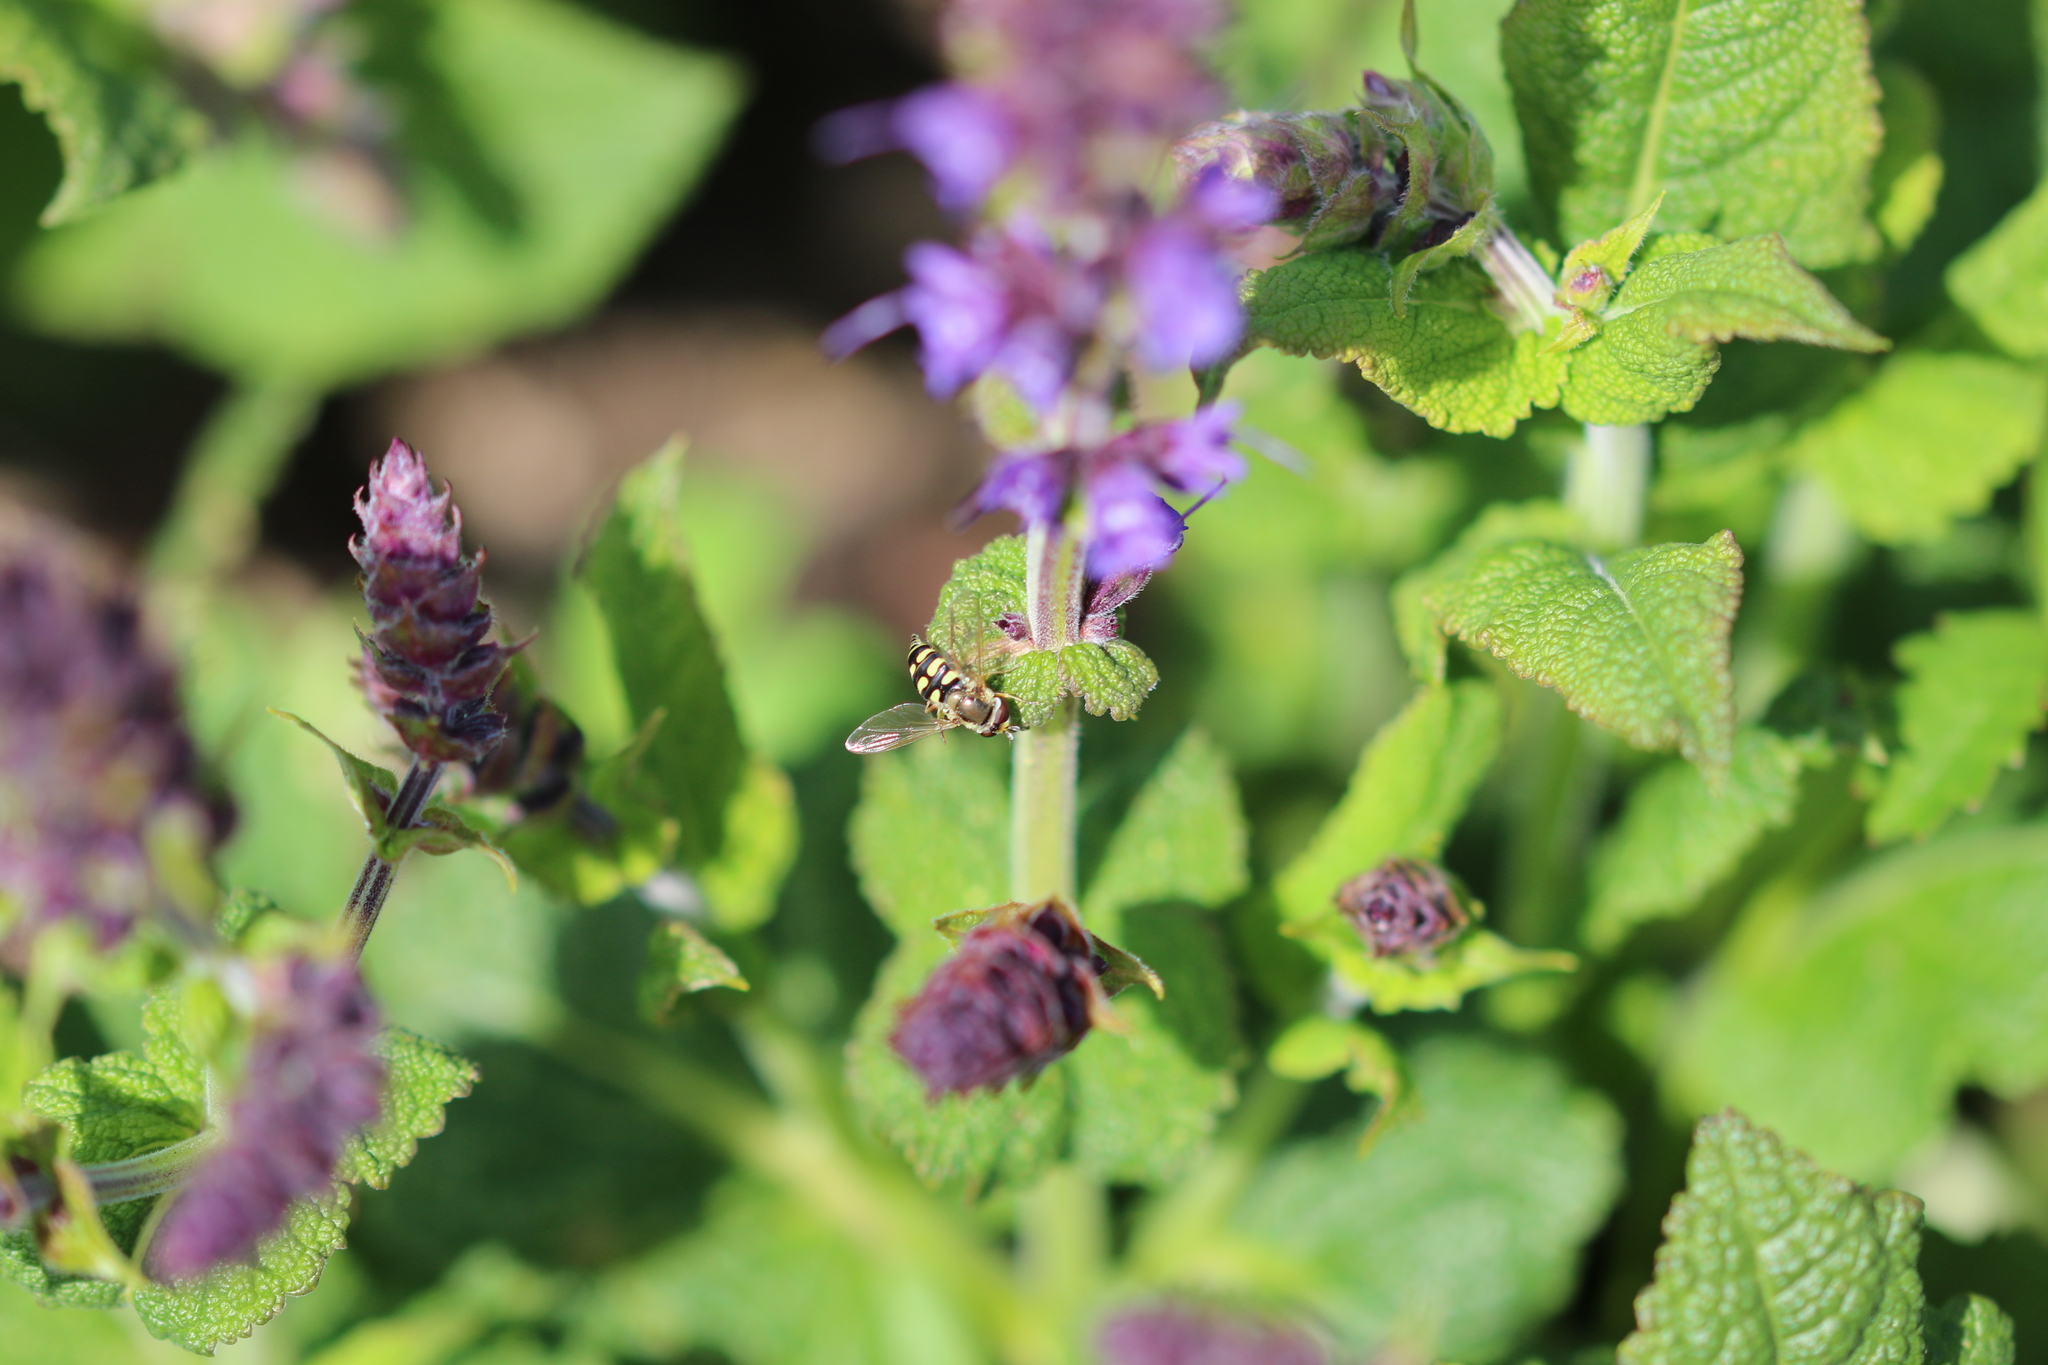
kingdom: Animalia
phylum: Arthropoda
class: Insecta
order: Diptera
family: Syrphidae
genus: Eupeodes
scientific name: Eupeodes corollae
